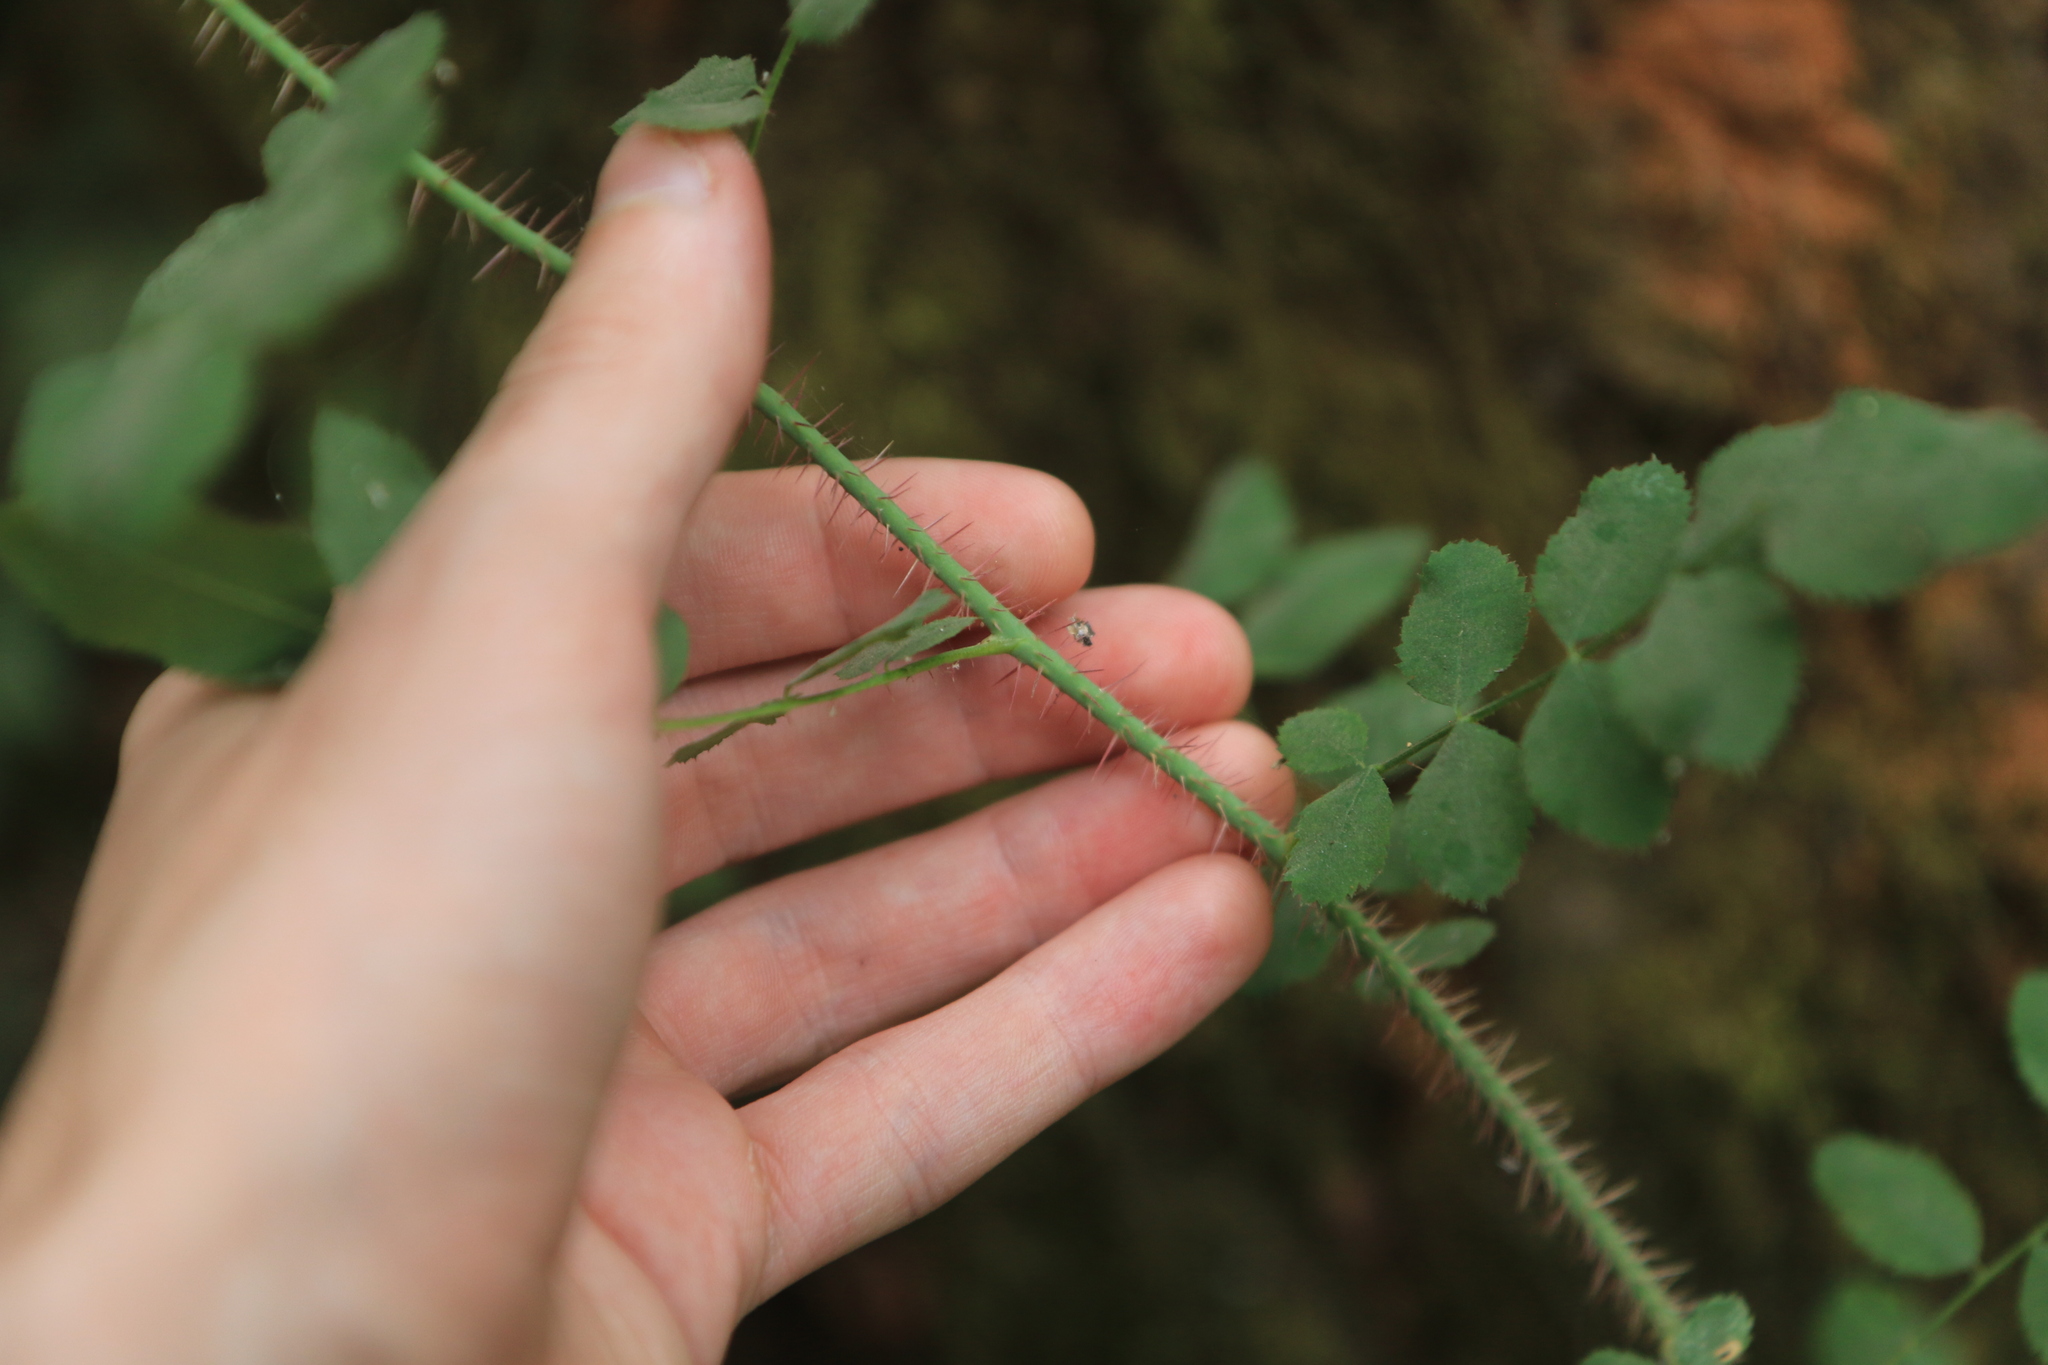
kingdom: Plantae
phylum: Tracheophyta
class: Magnoliopsida
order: Rosales
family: Rosaceae
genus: Rosa
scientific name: Rosa gymnocarpa
